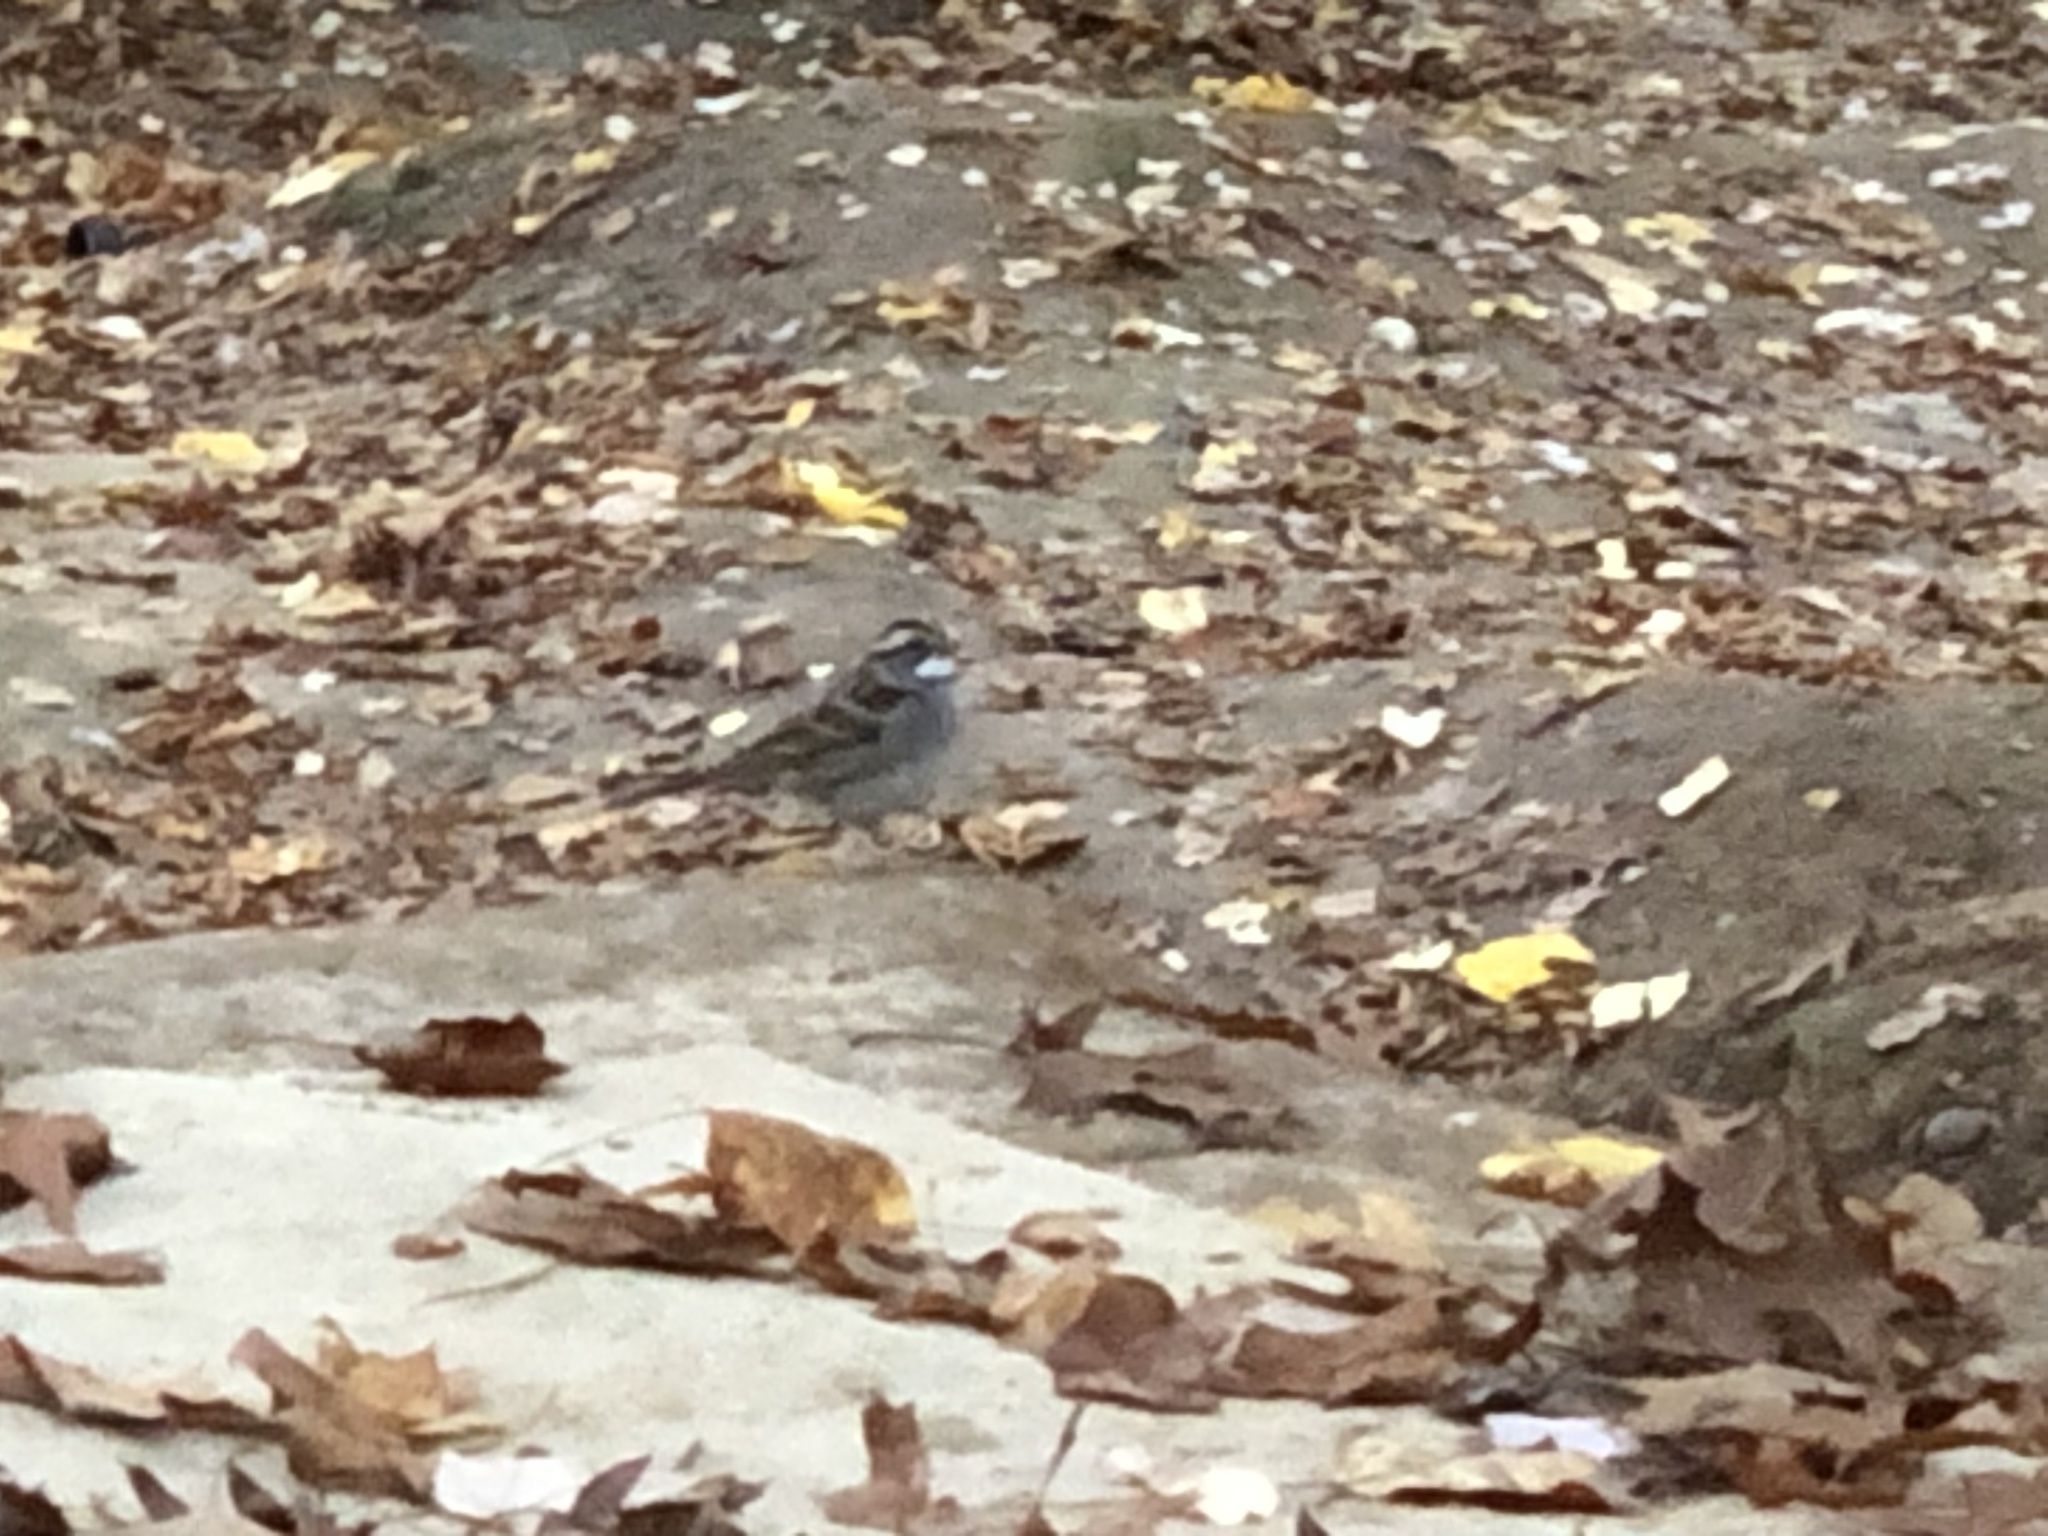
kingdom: Animalia
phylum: Chordata
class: Aves
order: Passeriformes
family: Passerellidae
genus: Zonotrichia
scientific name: Zonotrichia albicollis
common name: White-throated sparrow
